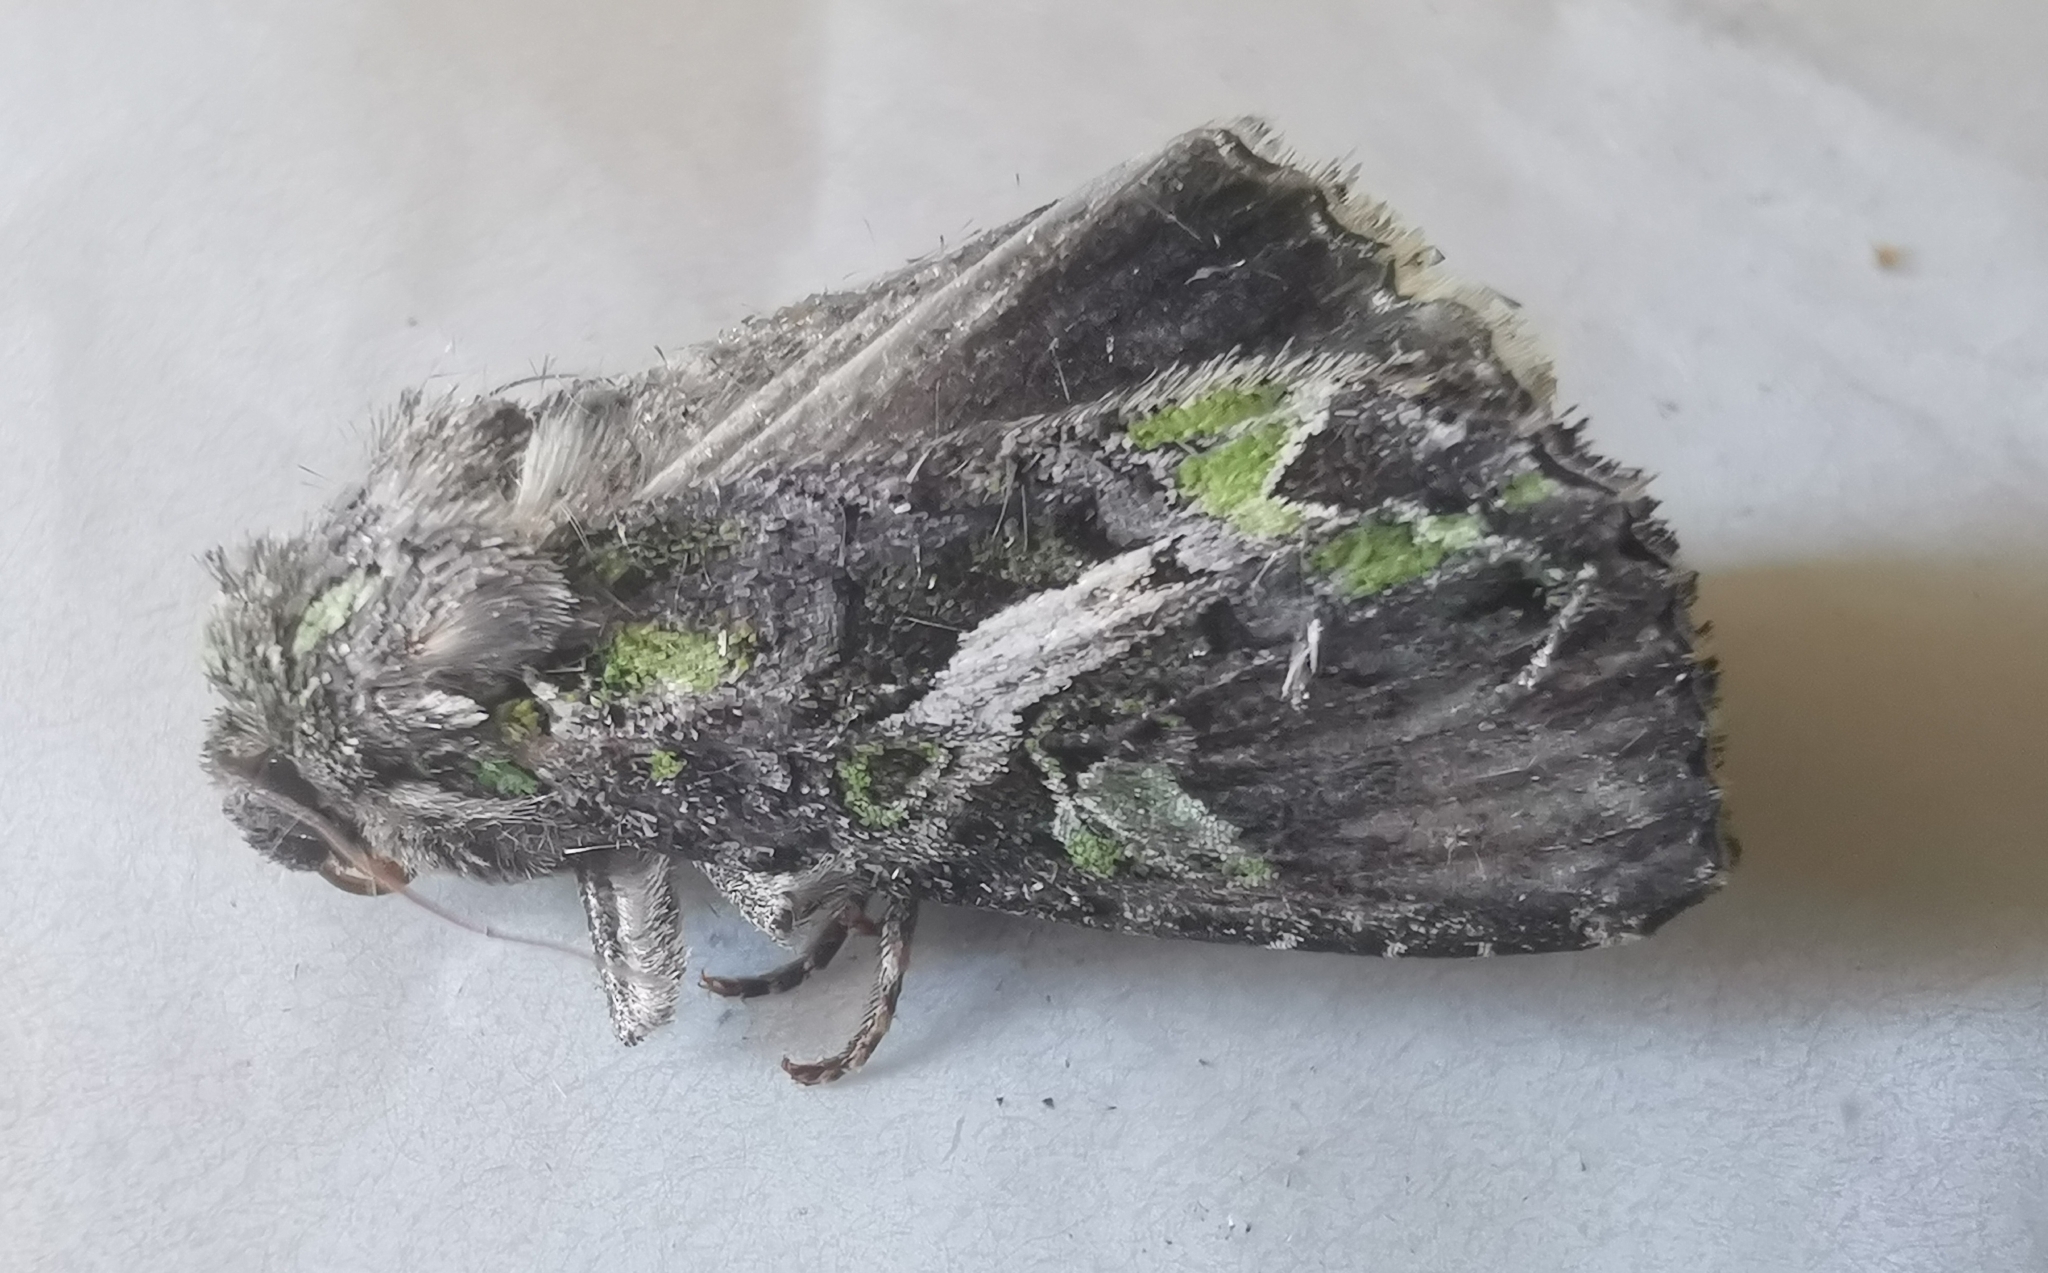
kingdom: Animalia
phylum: Arthropoda
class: Insecta
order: Lepidoptera
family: Noctuidae
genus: Trachea
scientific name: Trachea atriplicis
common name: Orache moth
